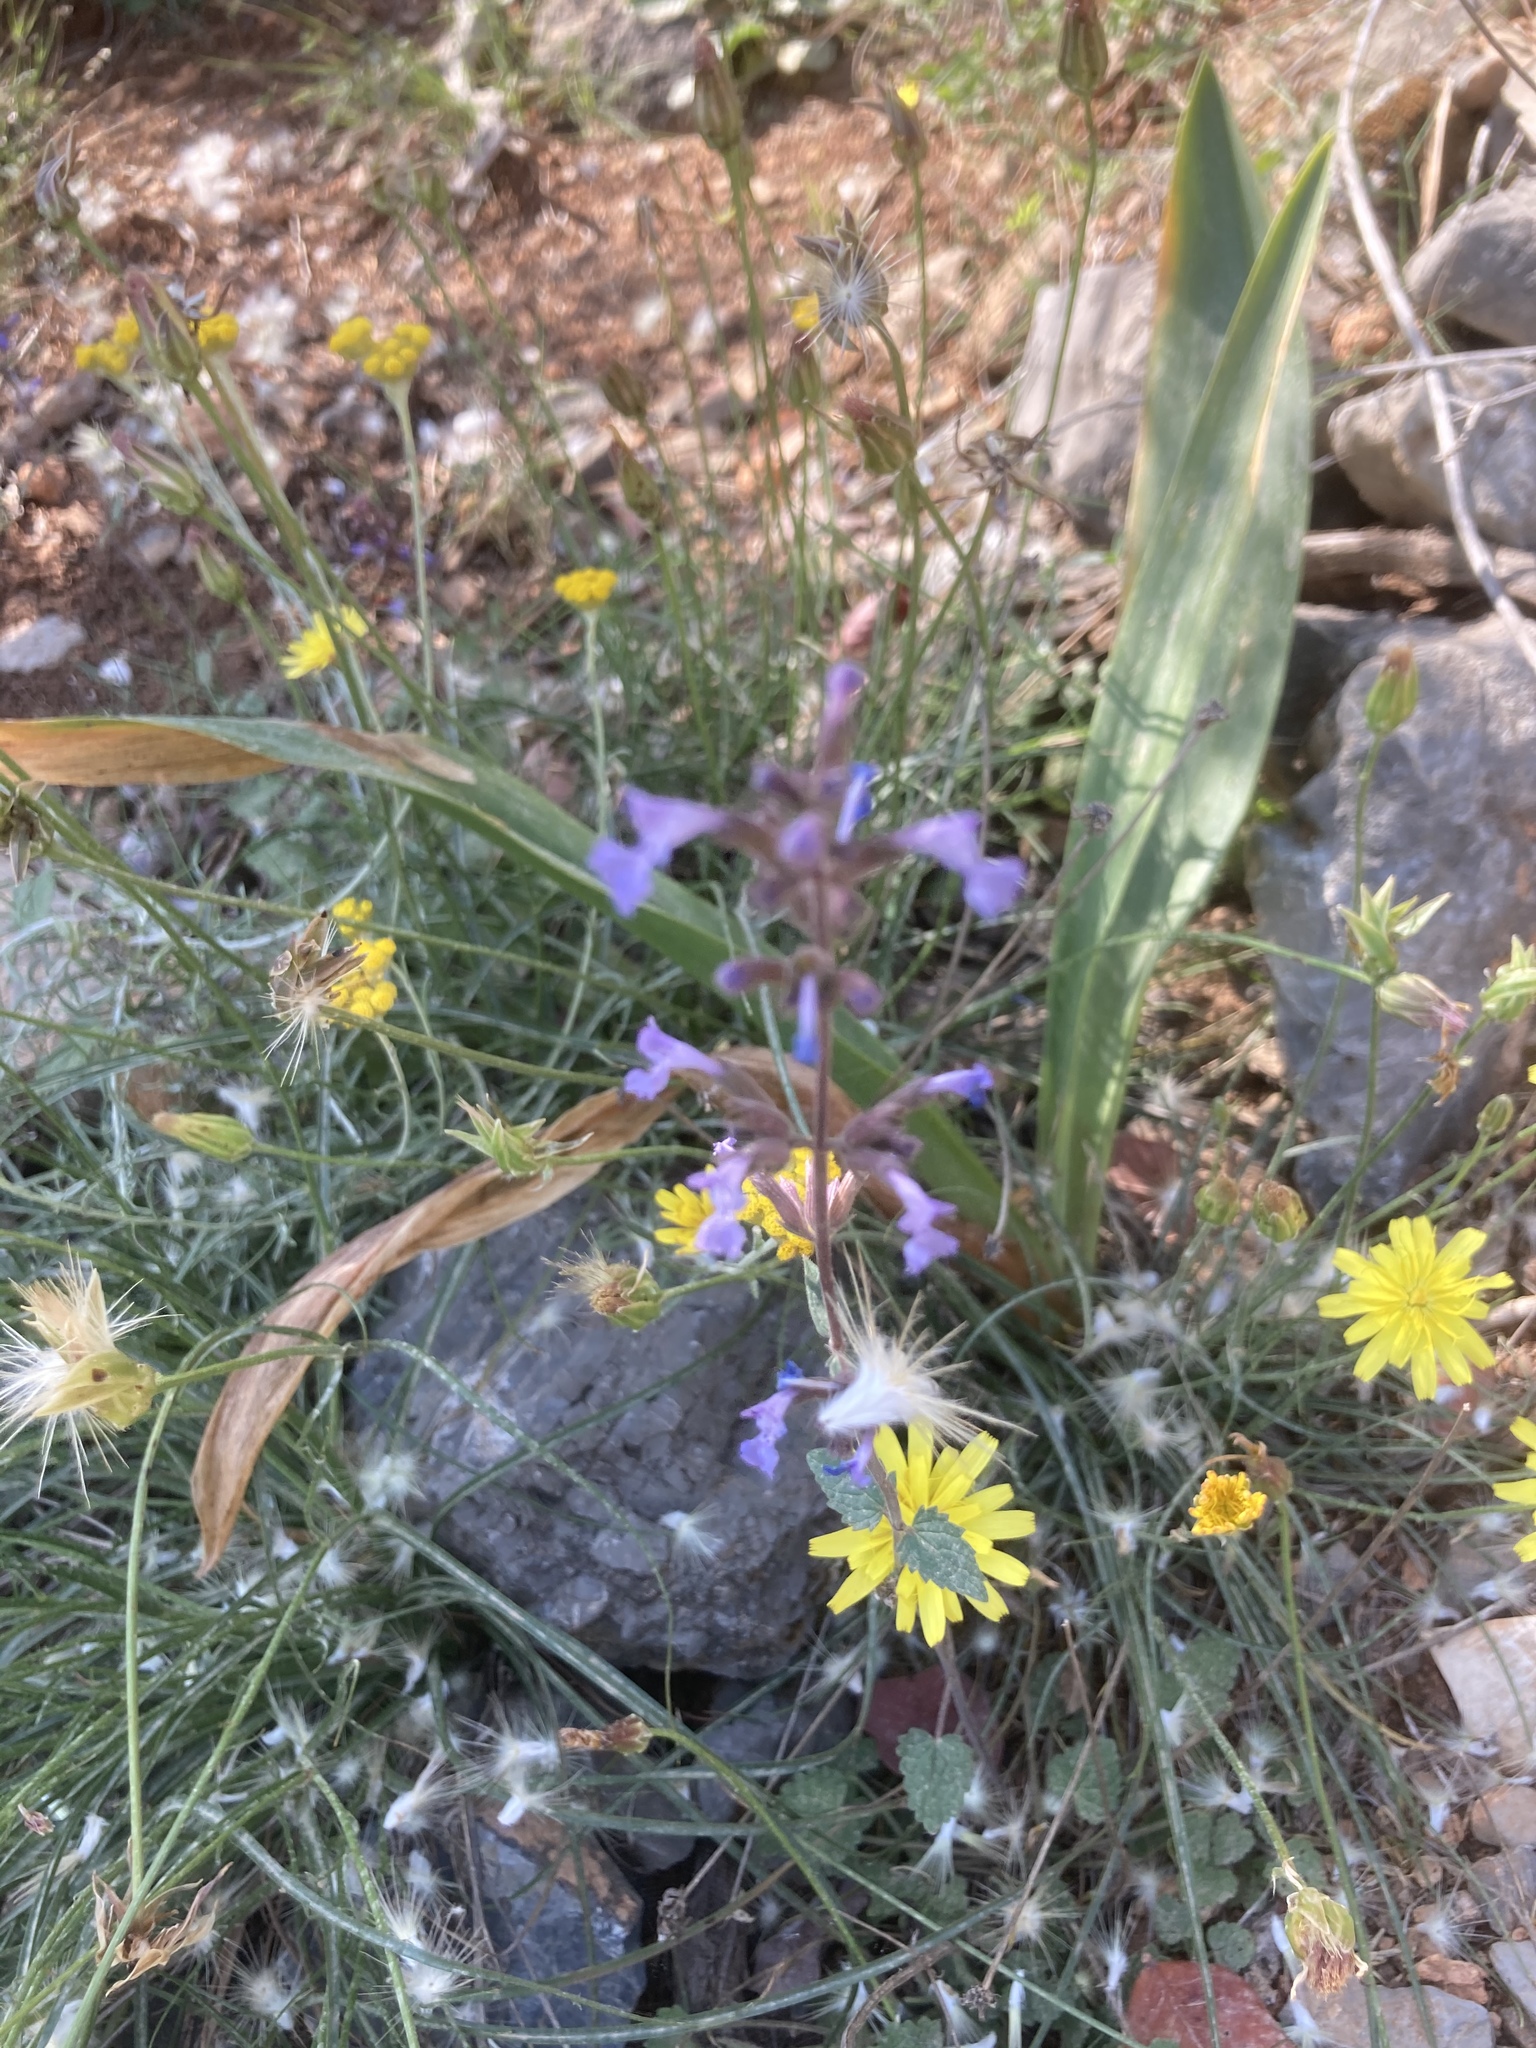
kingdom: Plantae
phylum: Tracheophyta
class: Magnoliopsida
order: Lamiales
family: Lamiaceae
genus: Nepeta
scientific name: Nepeta melissifolia
